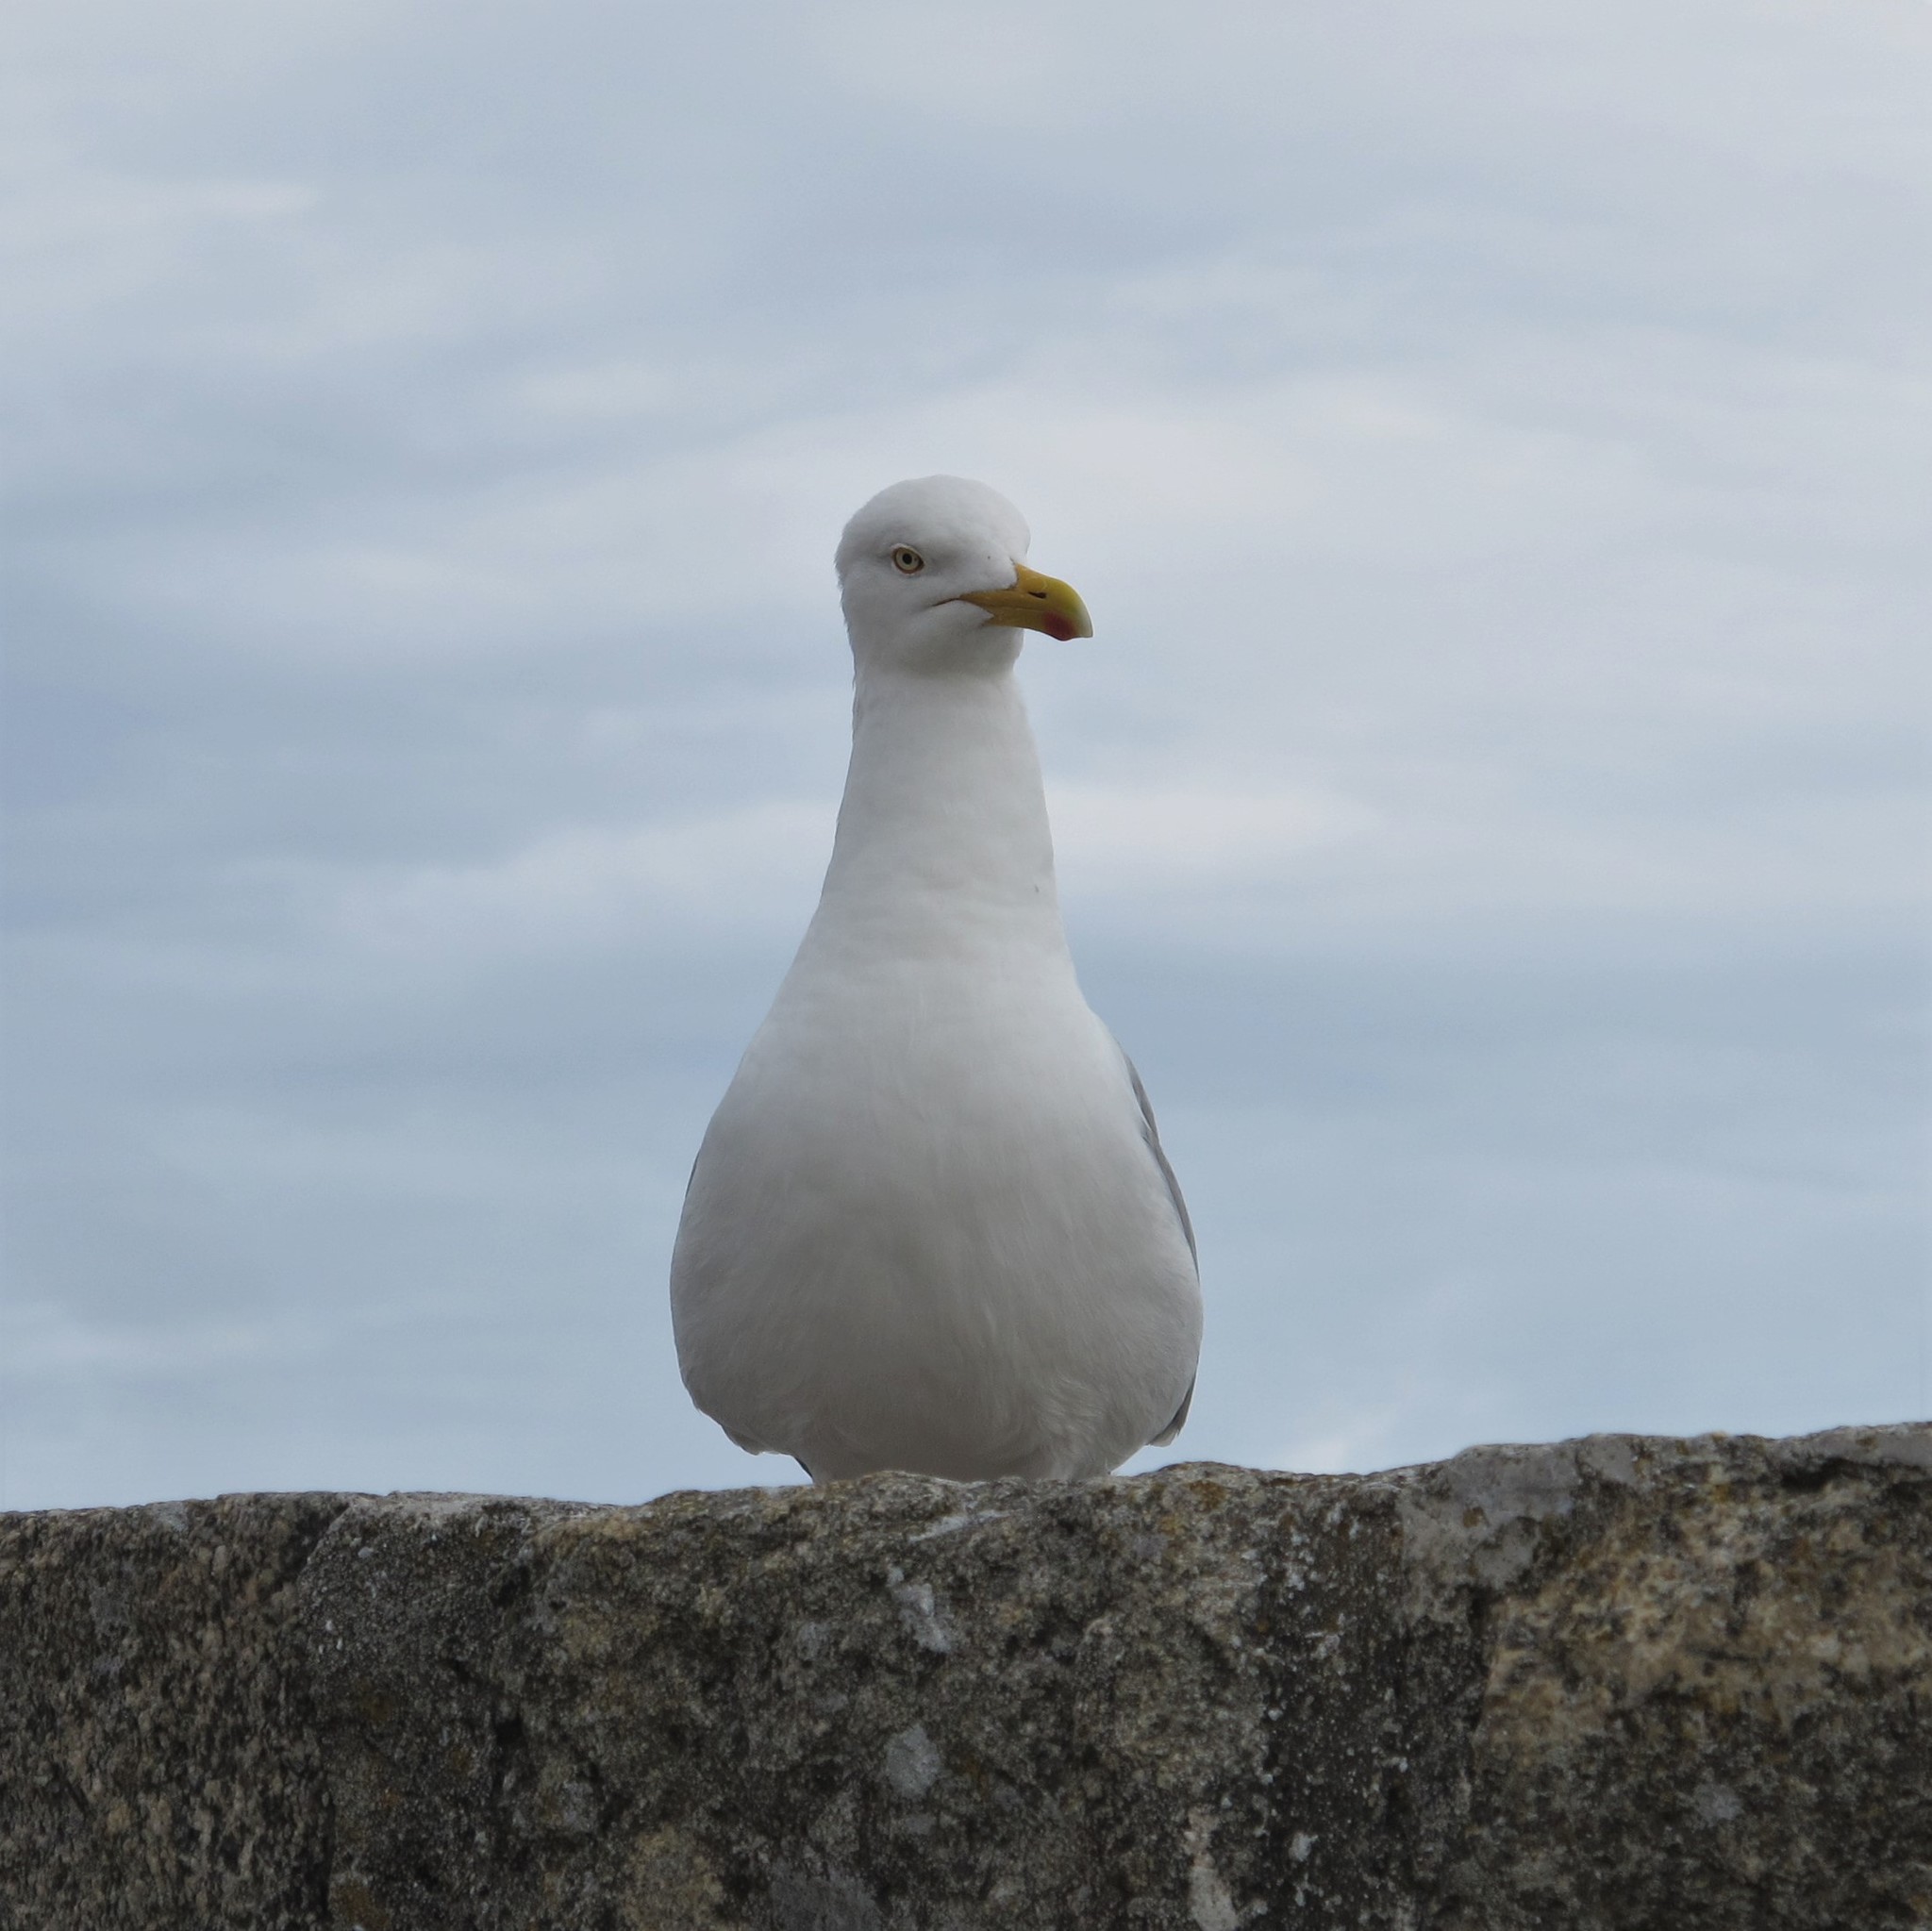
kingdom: Animalia
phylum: Chordata
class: Aves
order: Charadriiformes
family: Laridae
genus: Larus
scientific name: Larus argentatus
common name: Herring gull
